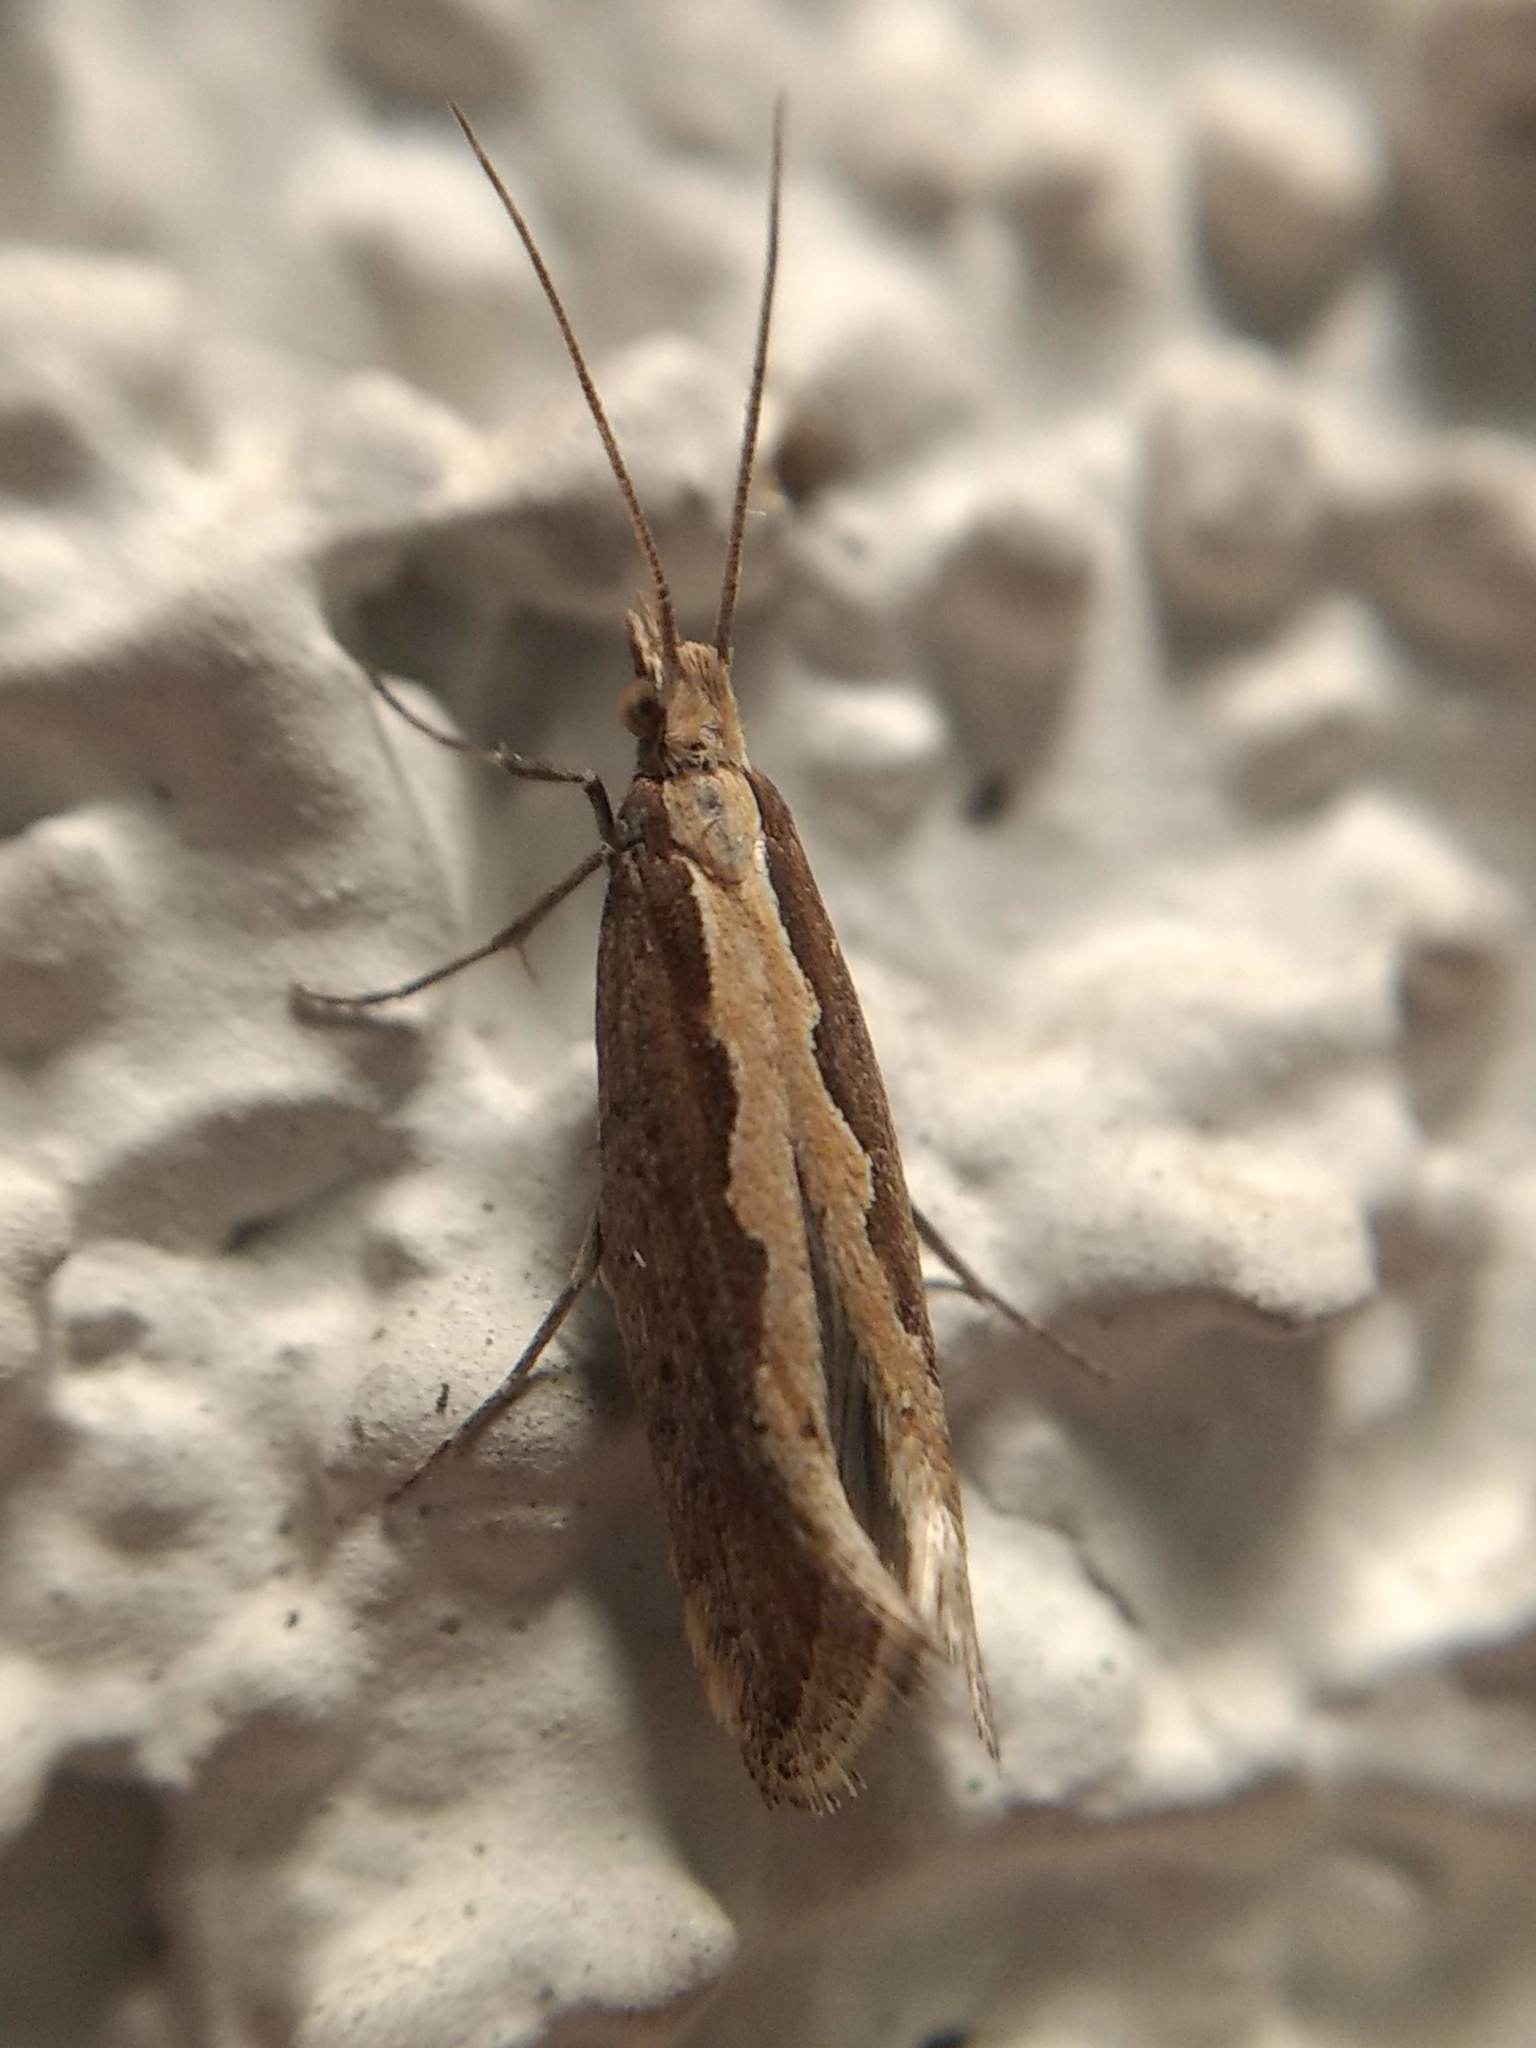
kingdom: Animalia
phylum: Arthropoda
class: Insecta
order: Lepidoptera
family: Plutellidae
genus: Plutella
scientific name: Plutella xylostella
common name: Diamond-back moth
